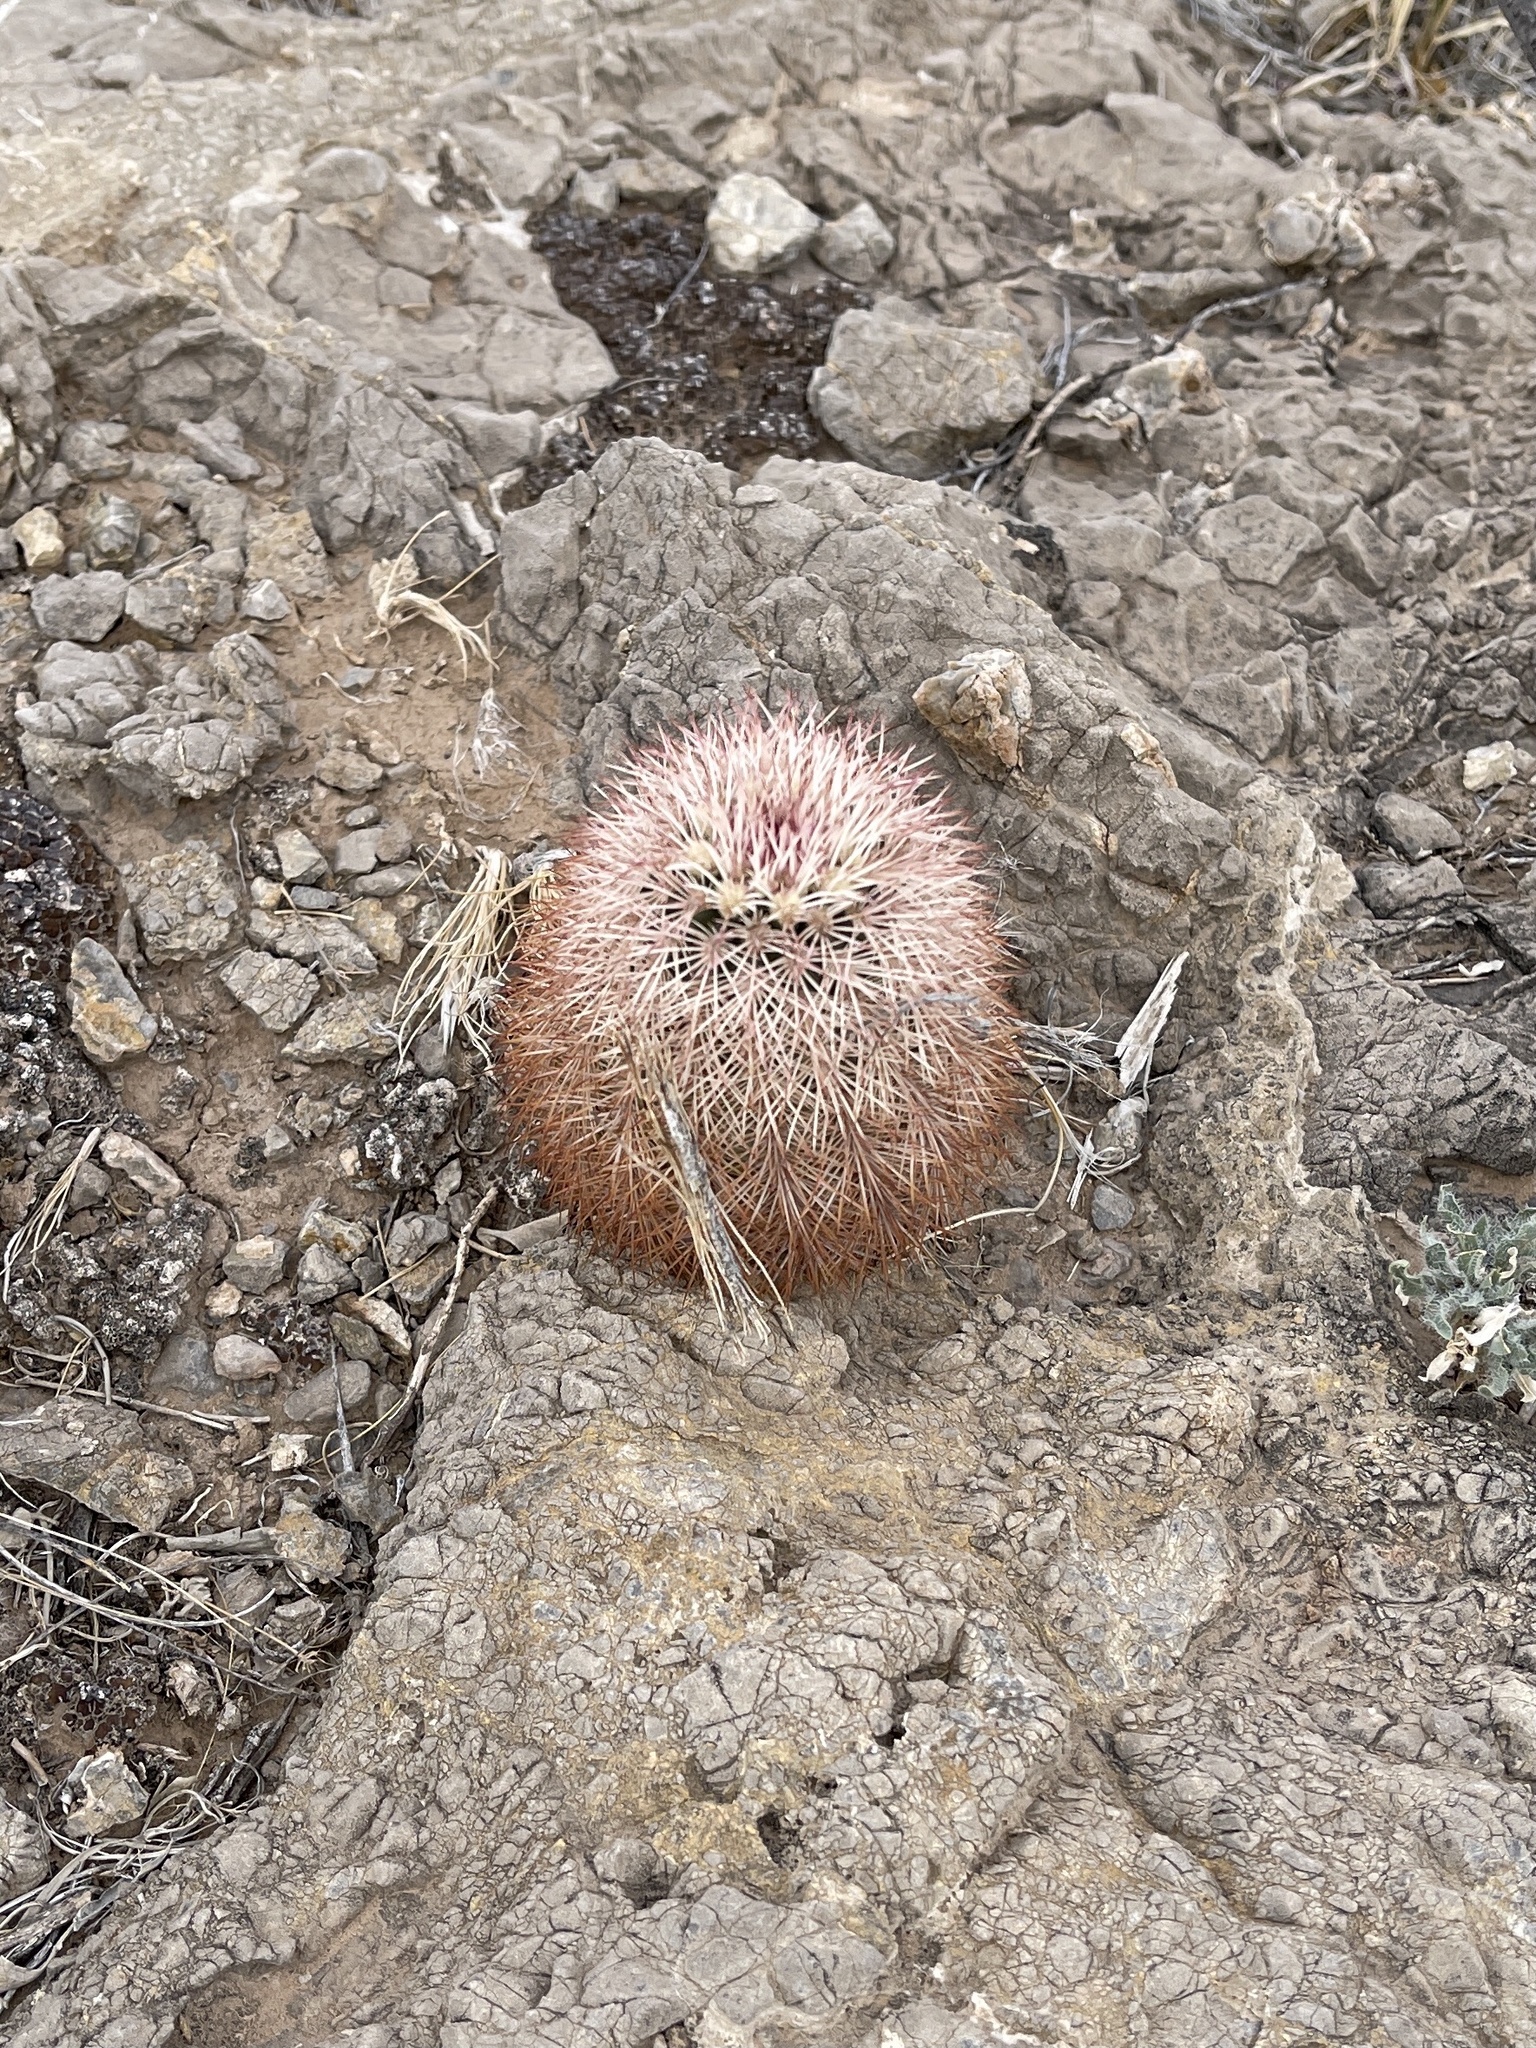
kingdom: Plantae
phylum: Tracheophyta
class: Magnoliopsida
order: Caryophyllales
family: Cactaceae
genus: Echinocereus
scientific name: Echinocereus dasyacanthus
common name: Spiny hedgehog cactus
